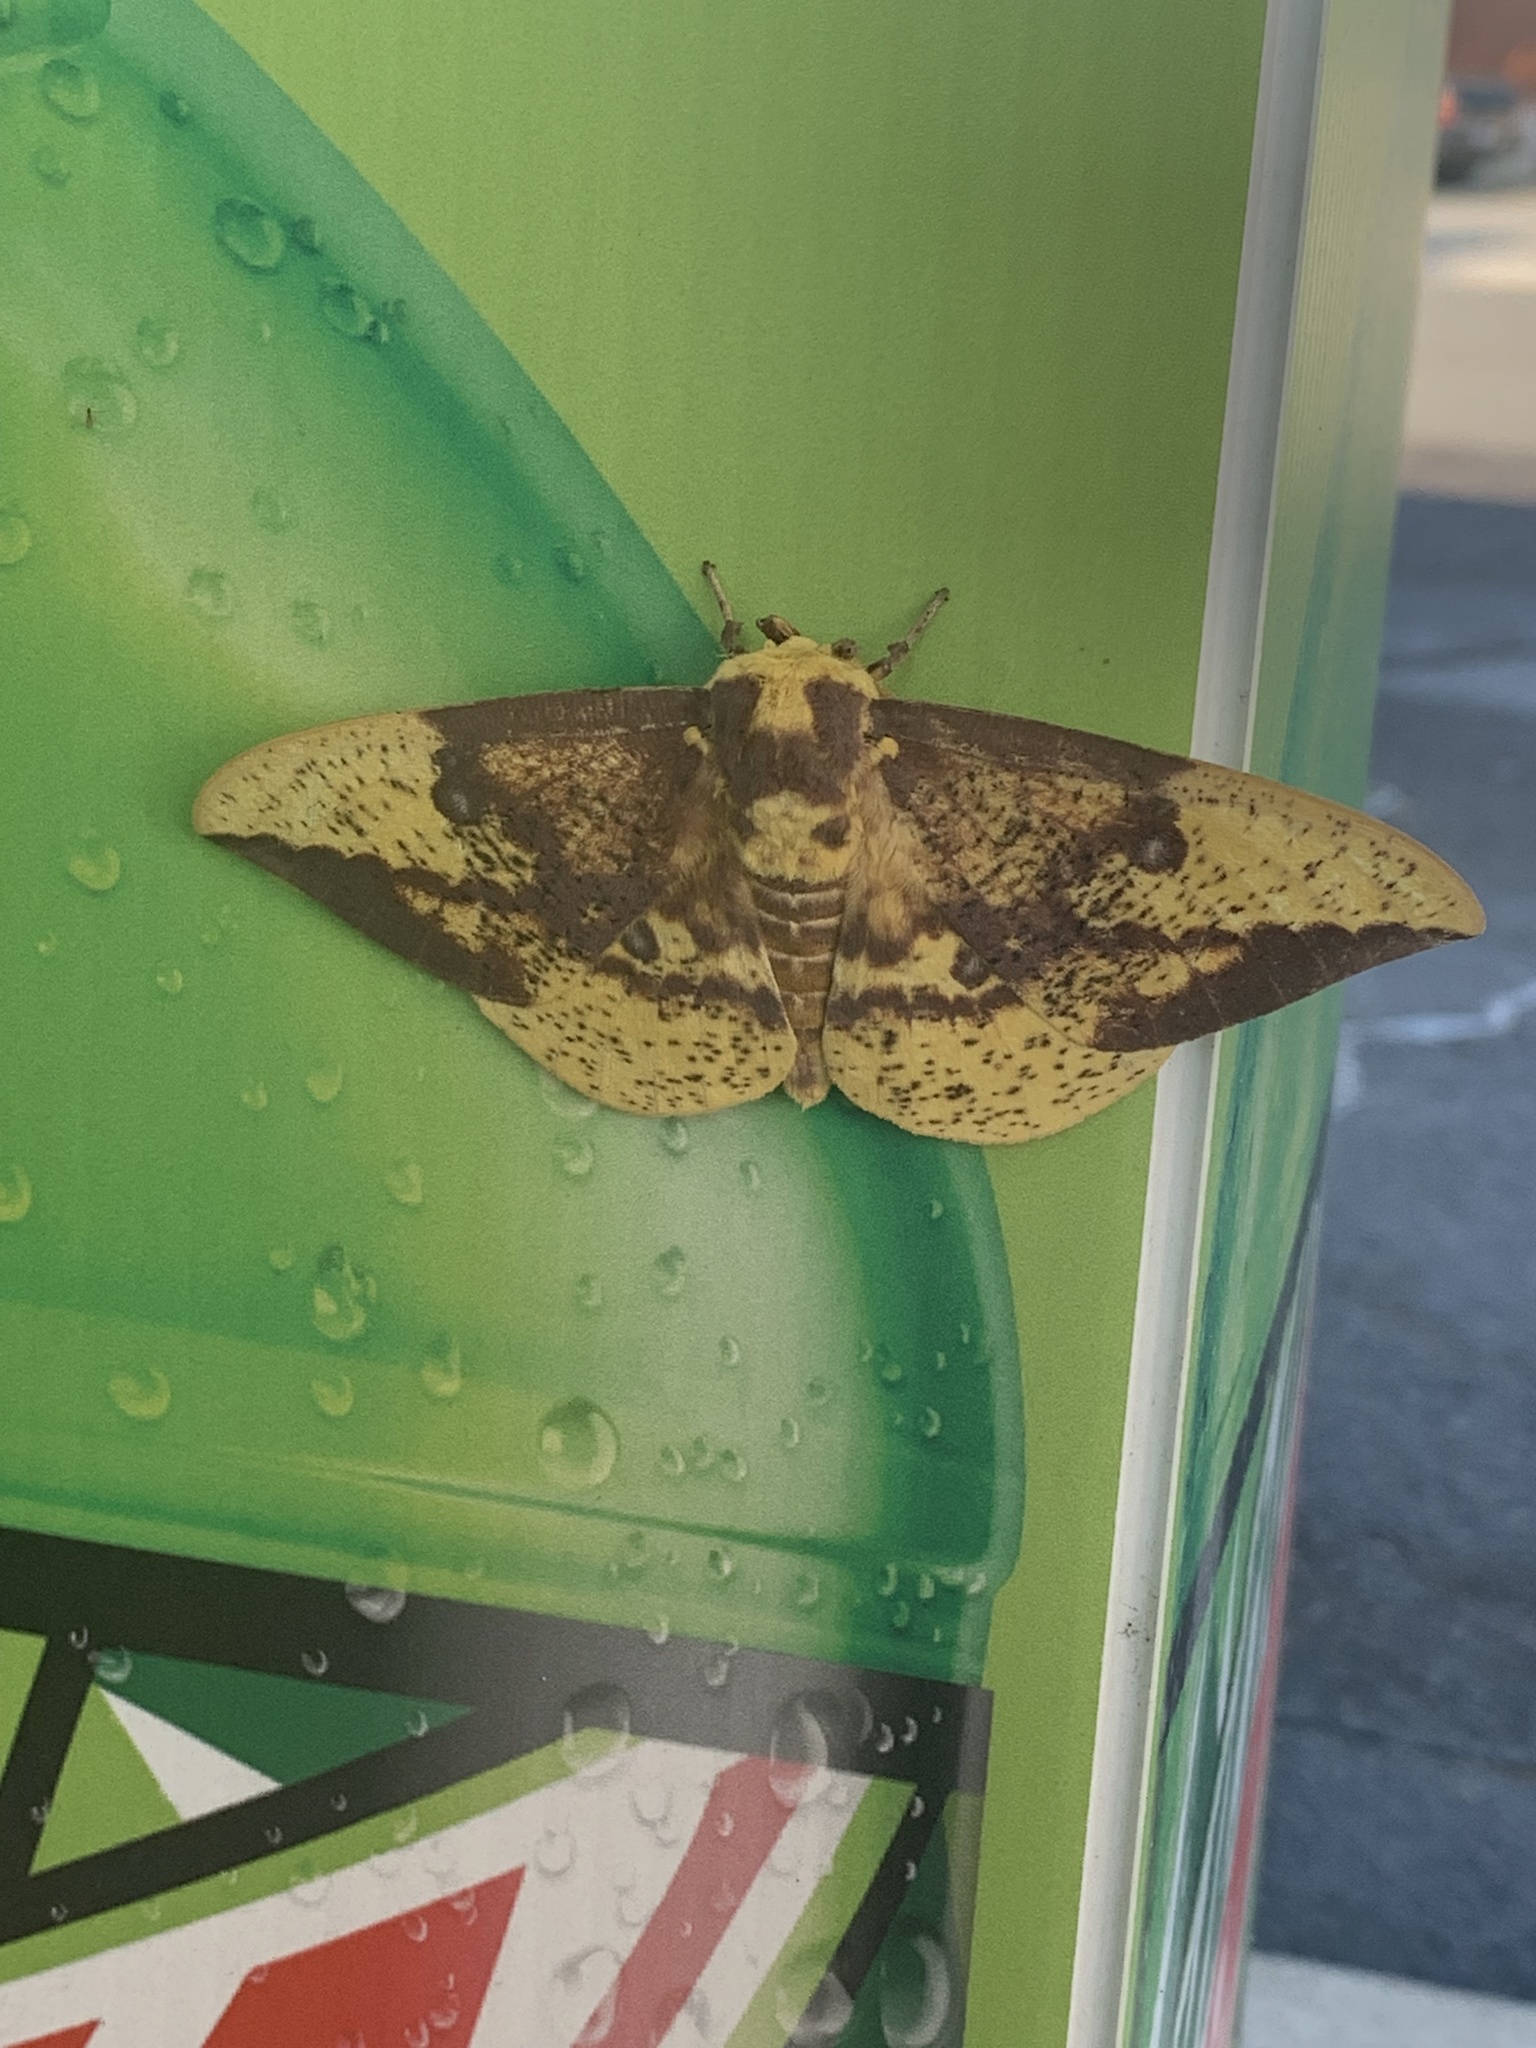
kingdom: Animalia
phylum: Arthropoda
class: Insecta
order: Lepidoptera
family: Saturniidae
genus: Eacles
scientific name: Eacles imperialis
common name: Imperial moth
